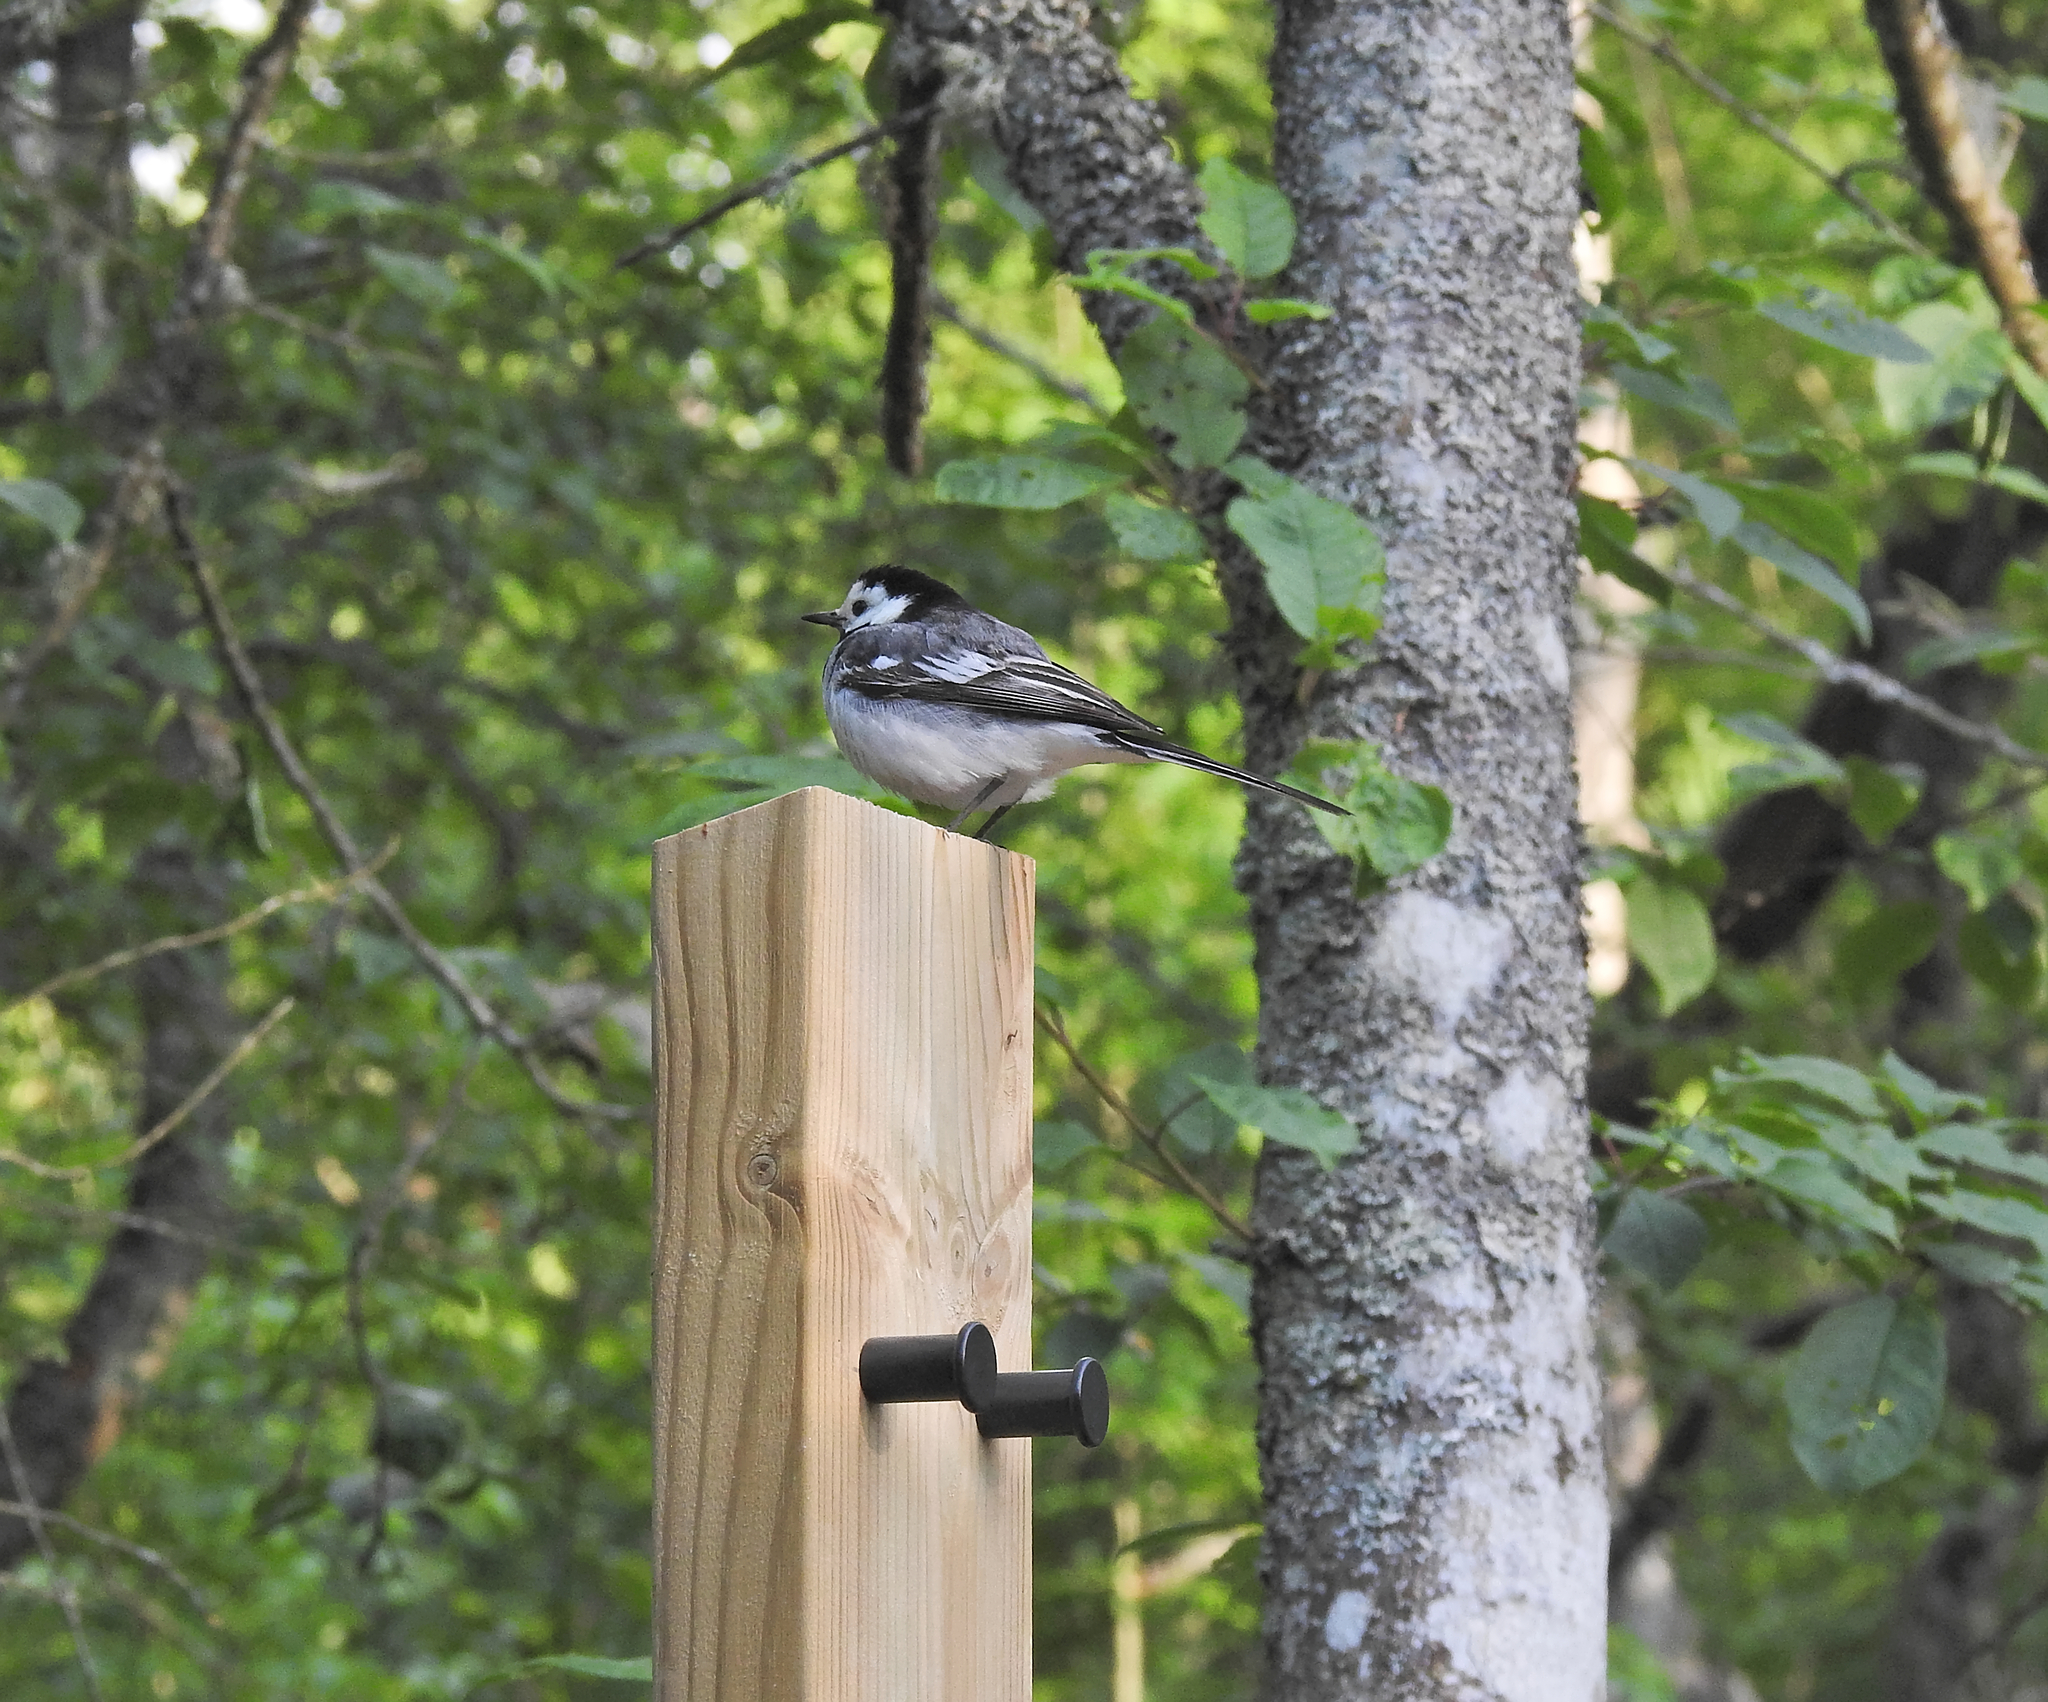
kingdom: Animalia
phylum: Chordata
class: Aves
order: Passeriformes
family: Motacillidae
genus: Motacilla
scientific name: Motacilla alba
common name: White wagtail
